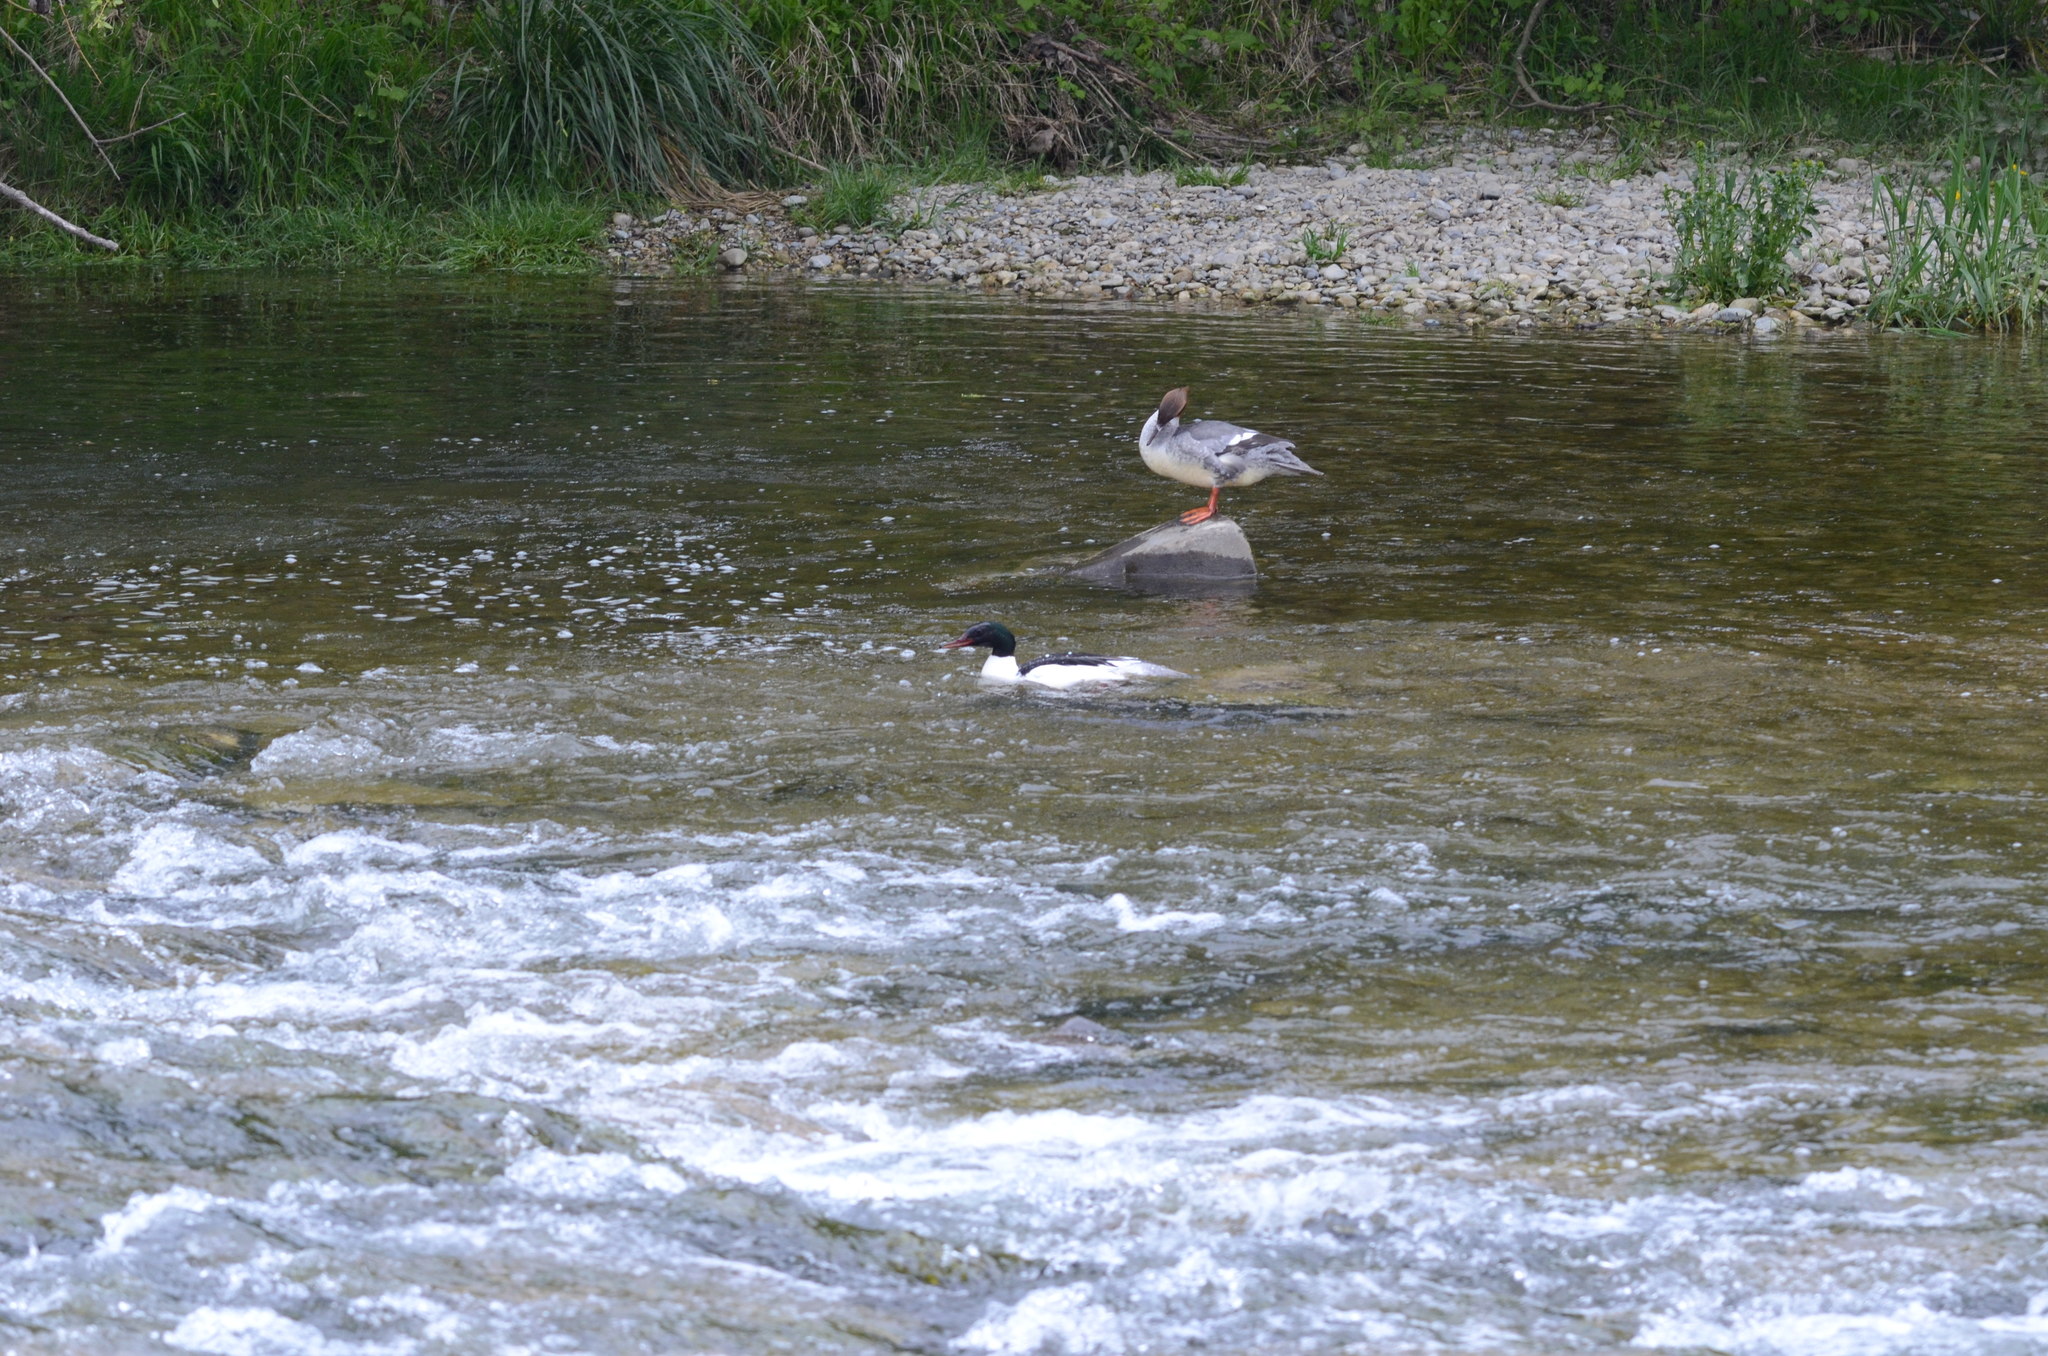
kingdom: Animalia
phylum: Chordata
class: Aves
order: Anseriformes
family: Anatidae
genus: Mergus
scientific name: Mergus merganser
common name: Common merganser
